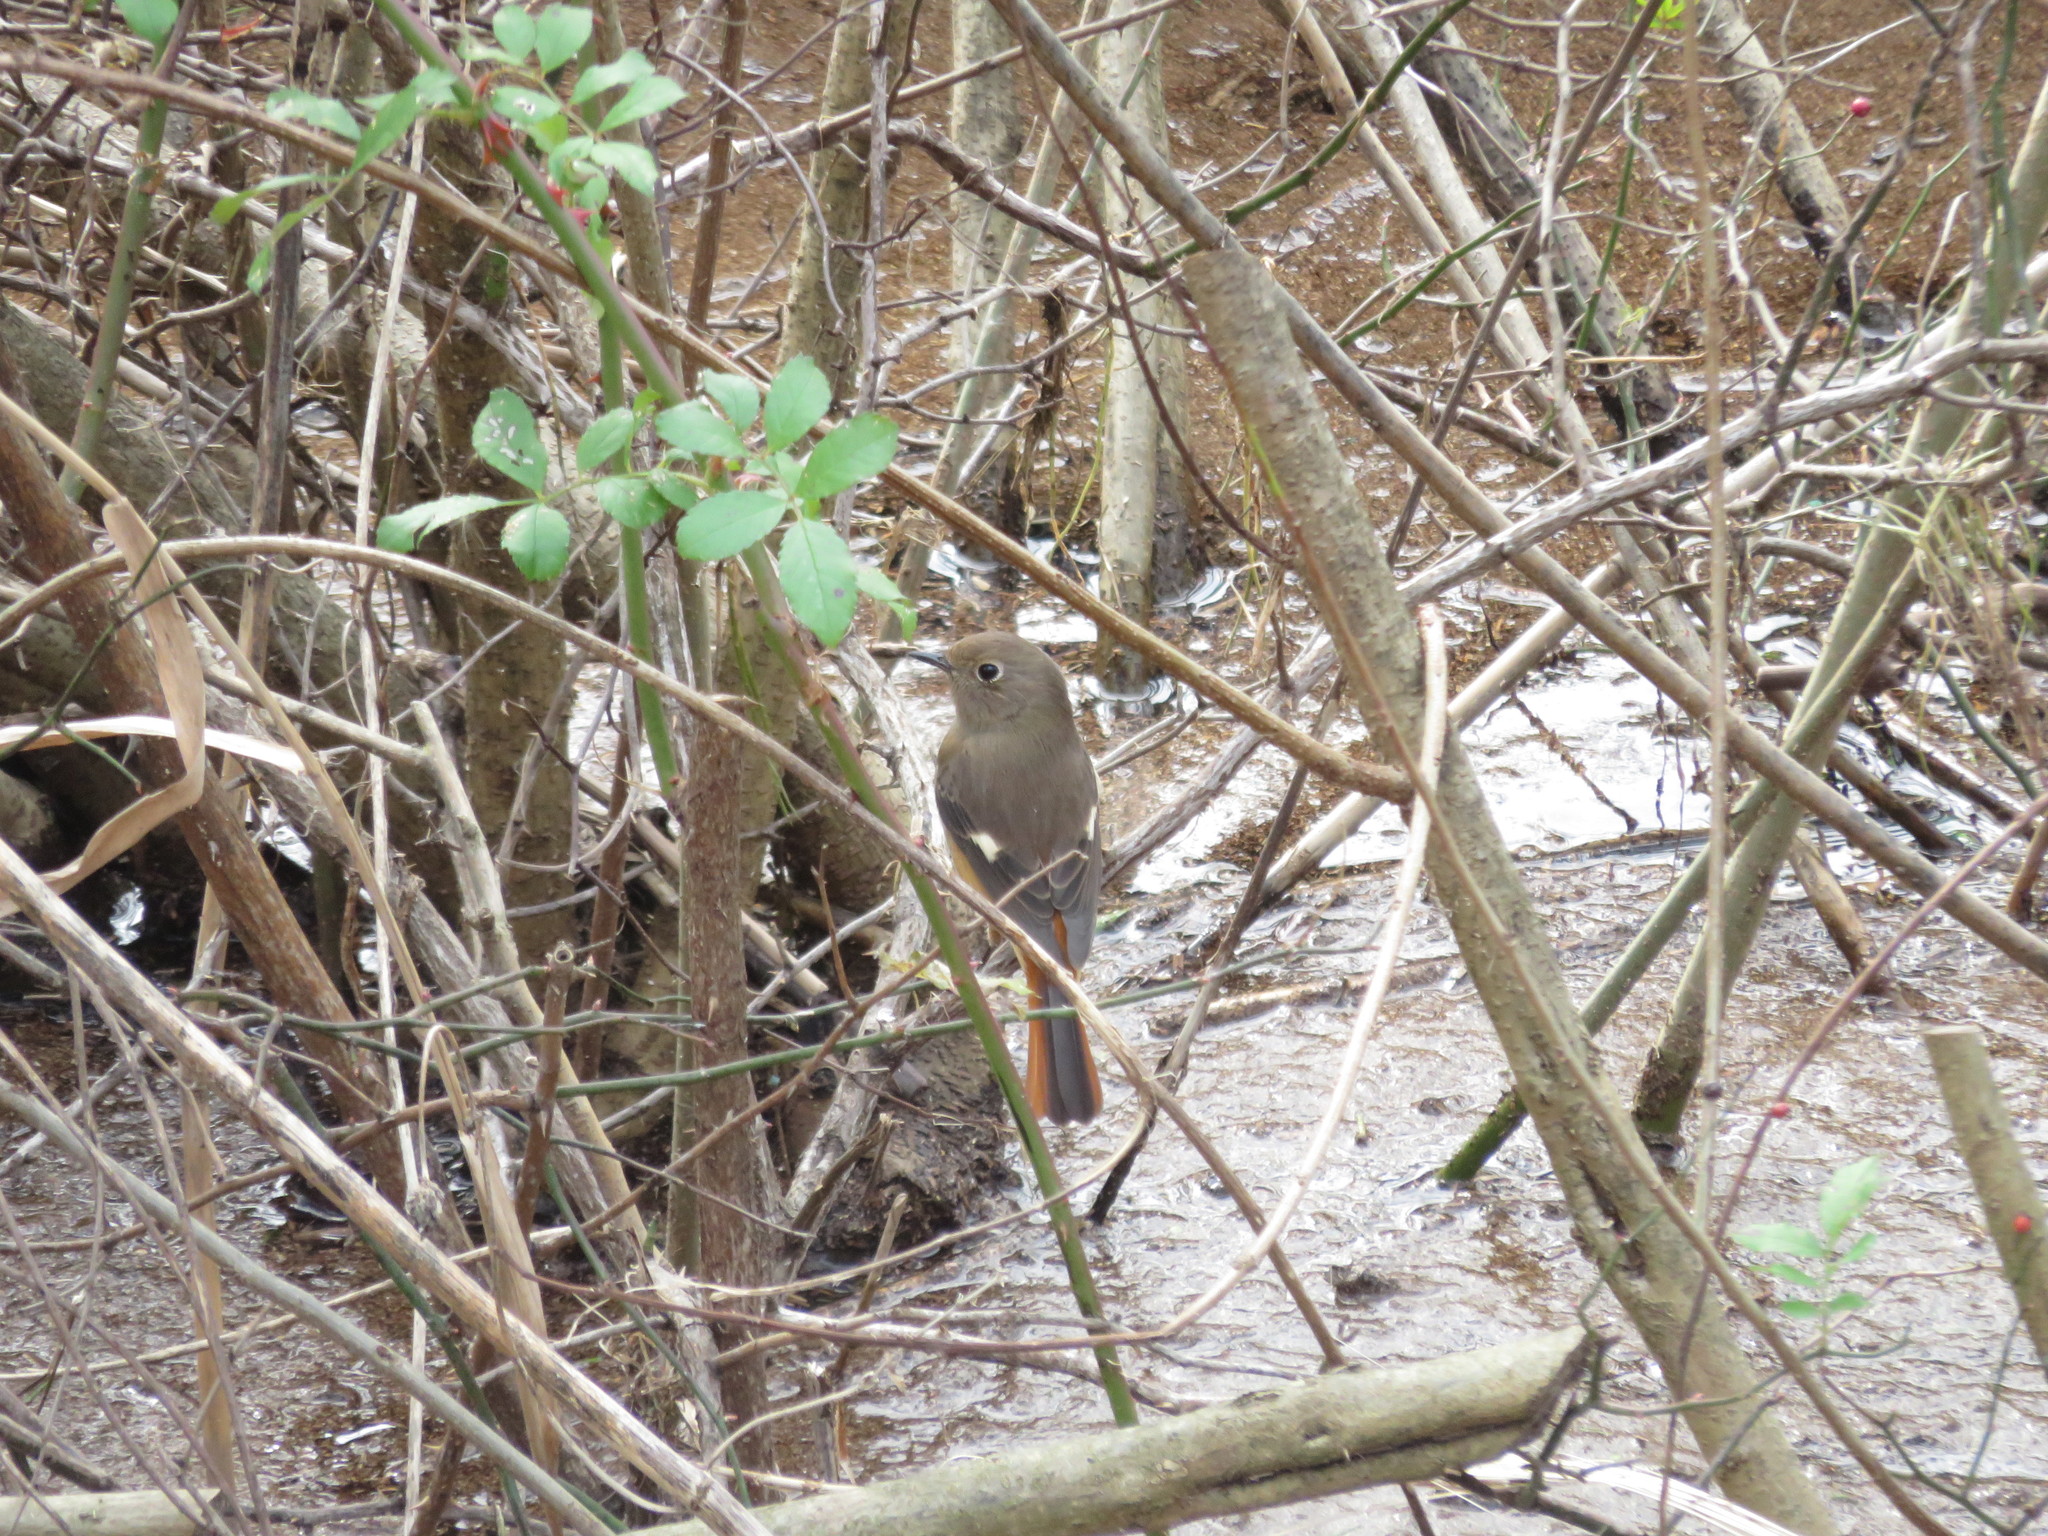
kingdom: Animalia
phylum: Chordata
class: Aves
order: Passeriformes
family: Muscicapidae
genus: Phoenicurus
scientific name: Phoenicurus auroreus
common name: Daurian redstart
